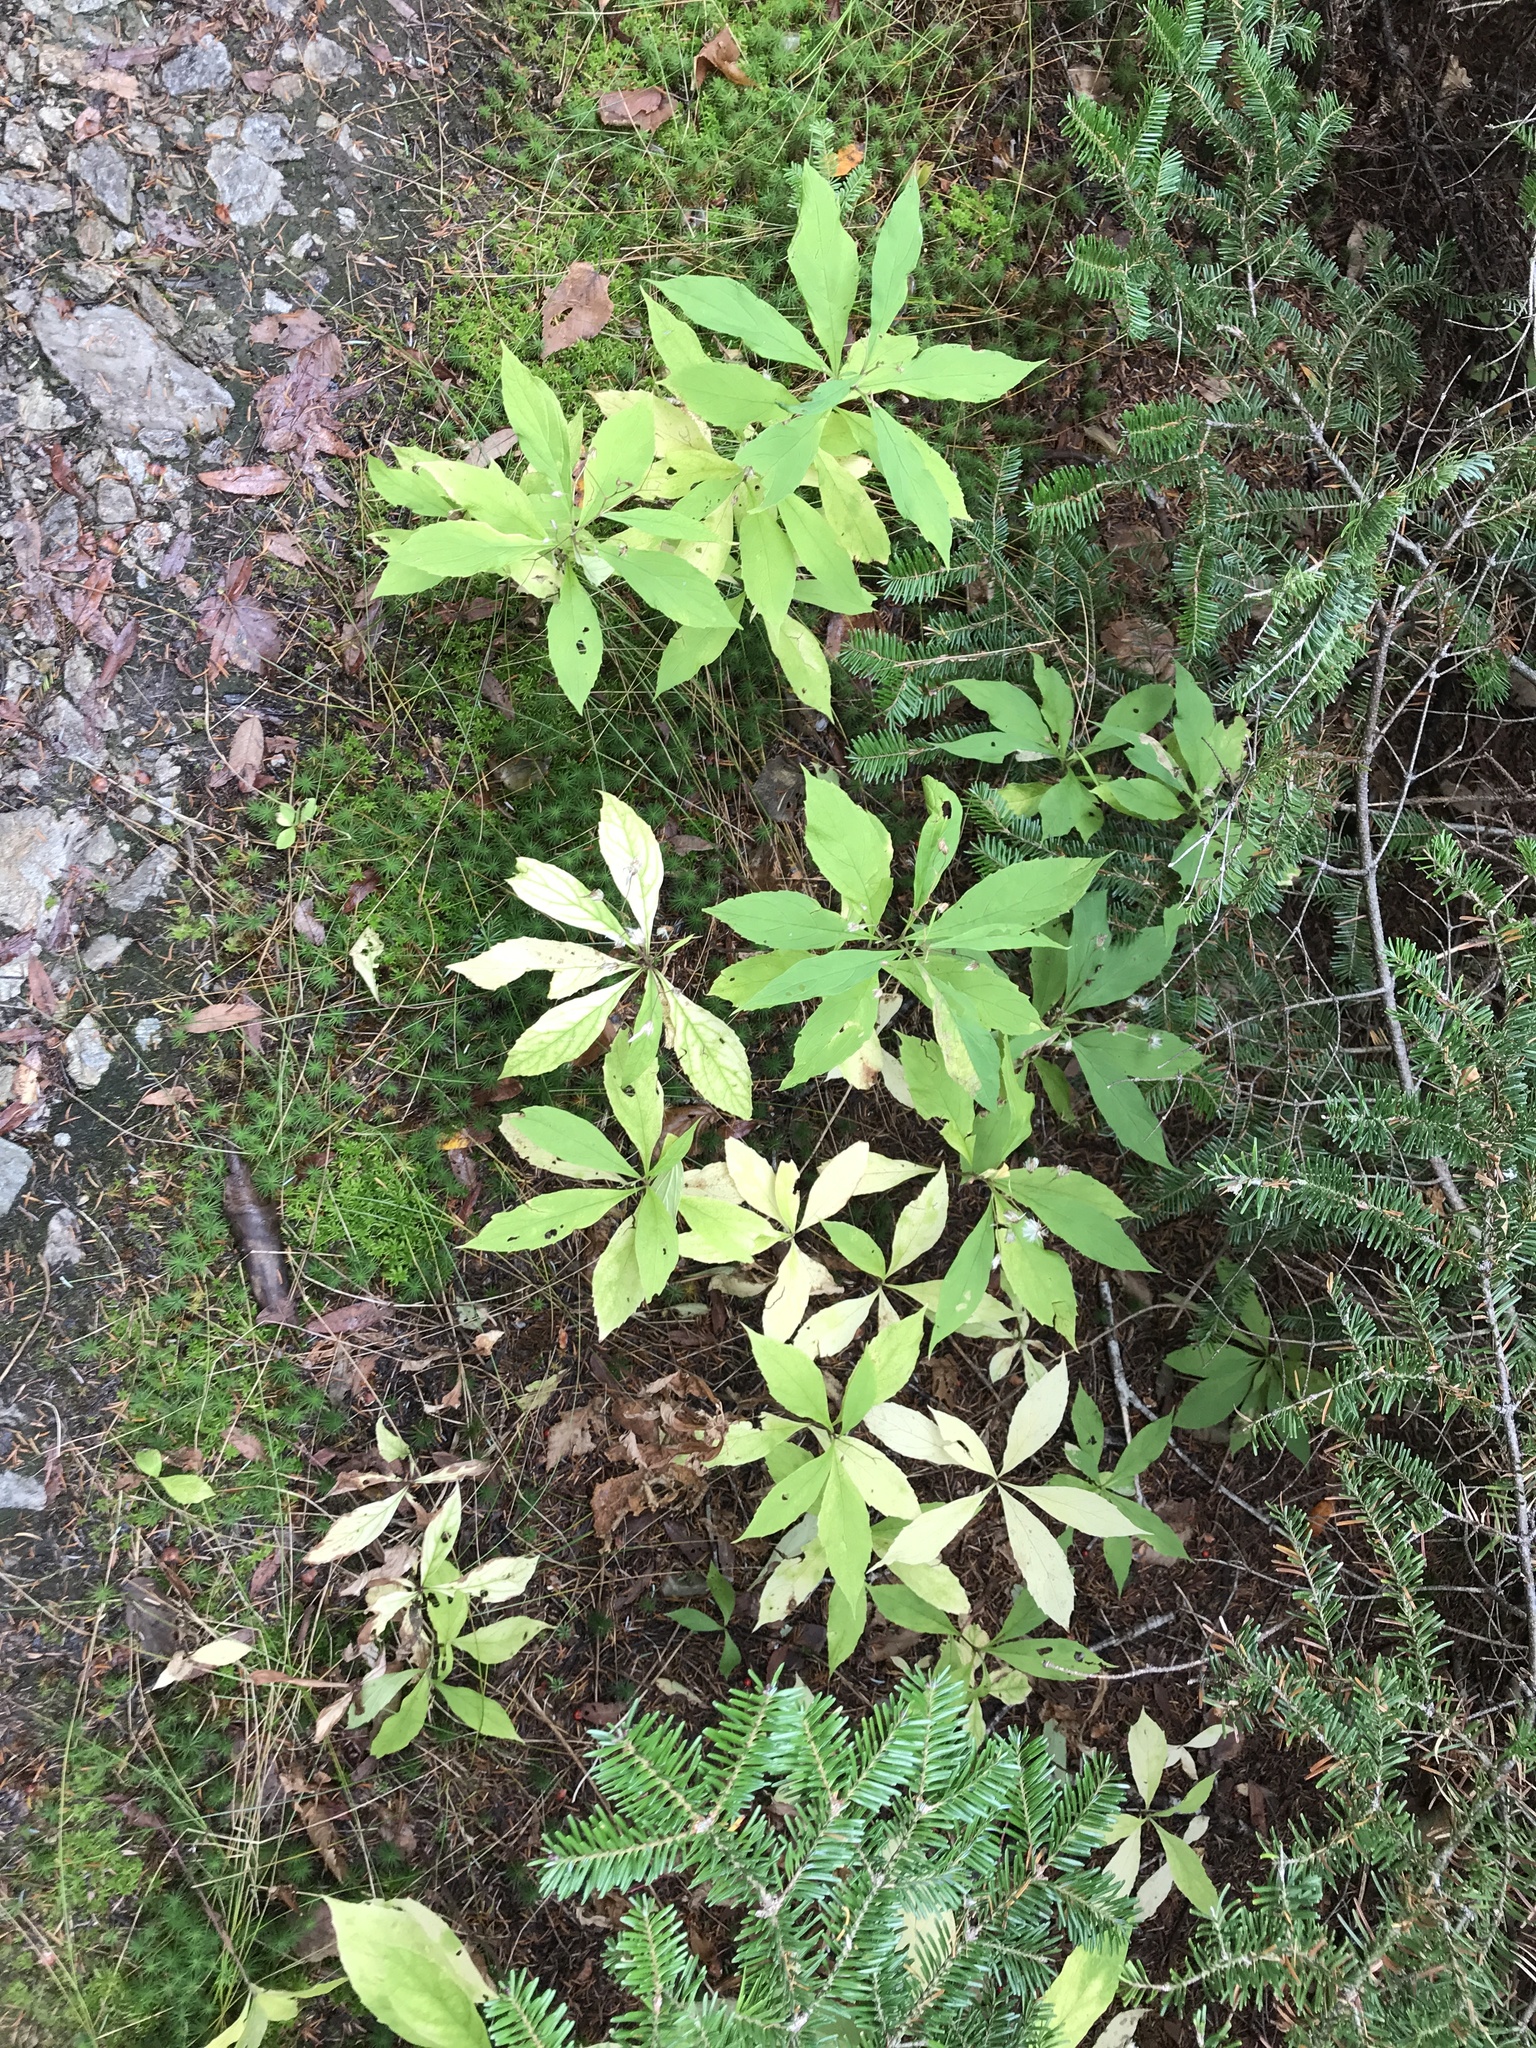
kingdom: Plantae
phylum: Tracheophyta
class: Magnoliopsida
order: Asterales
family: Asteraceae
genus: Oclemena
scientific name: Oclemena acuminata
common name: Mountain aster
